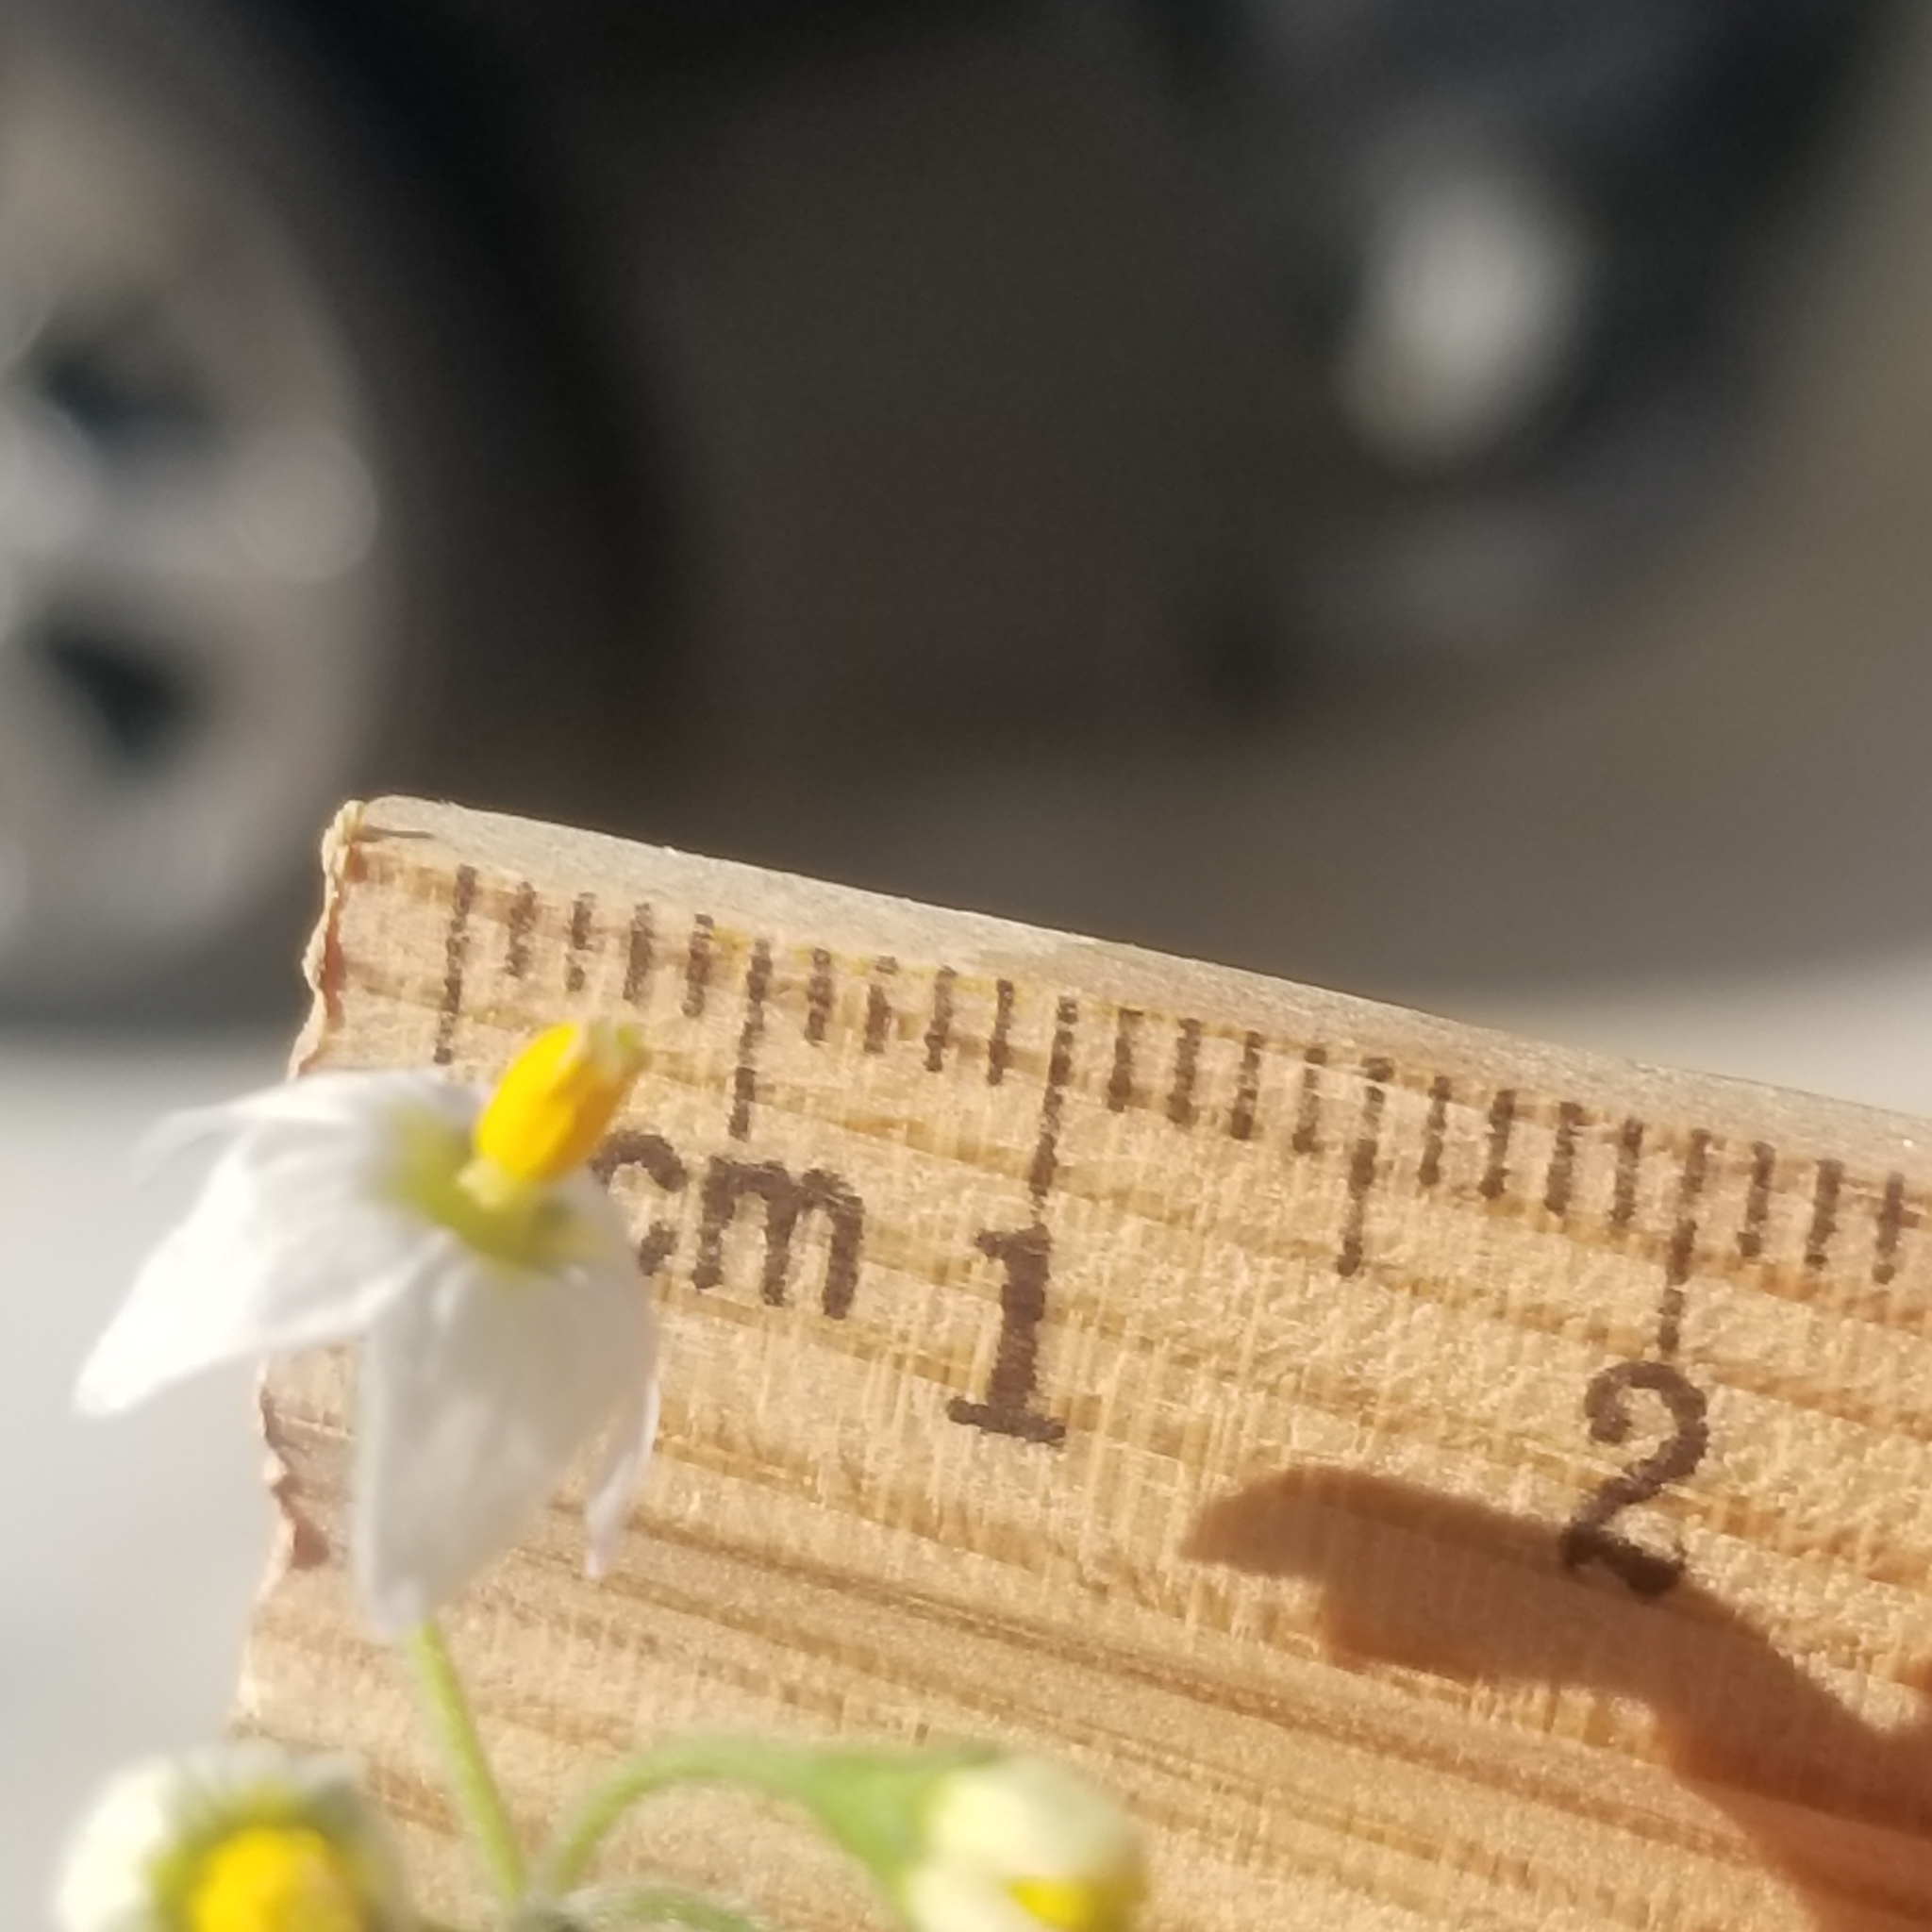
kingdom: Plantae
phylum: Tracheophyta
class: Magnoliopsida
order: Solanales
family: Solanaceae
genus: Solanum
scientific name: Solanum nigrum
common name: Black nightshade
